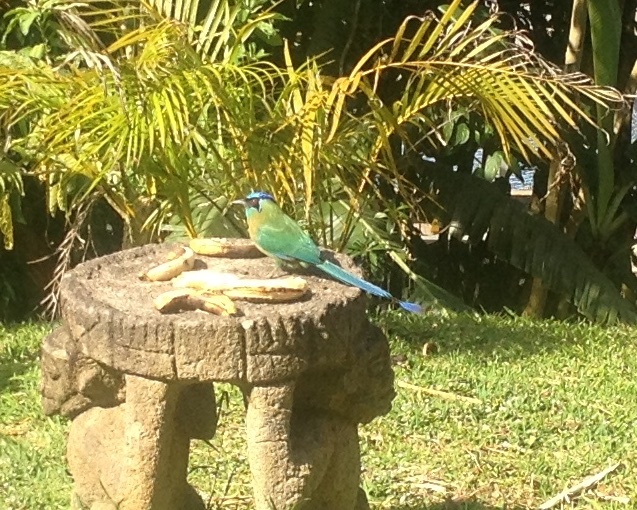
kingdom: Animalia
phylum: Chordata
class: Aves
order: Coraciiformes
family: Momotidae
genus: Momotus
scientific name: Momotus lessonii
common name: Lesson's motmot
